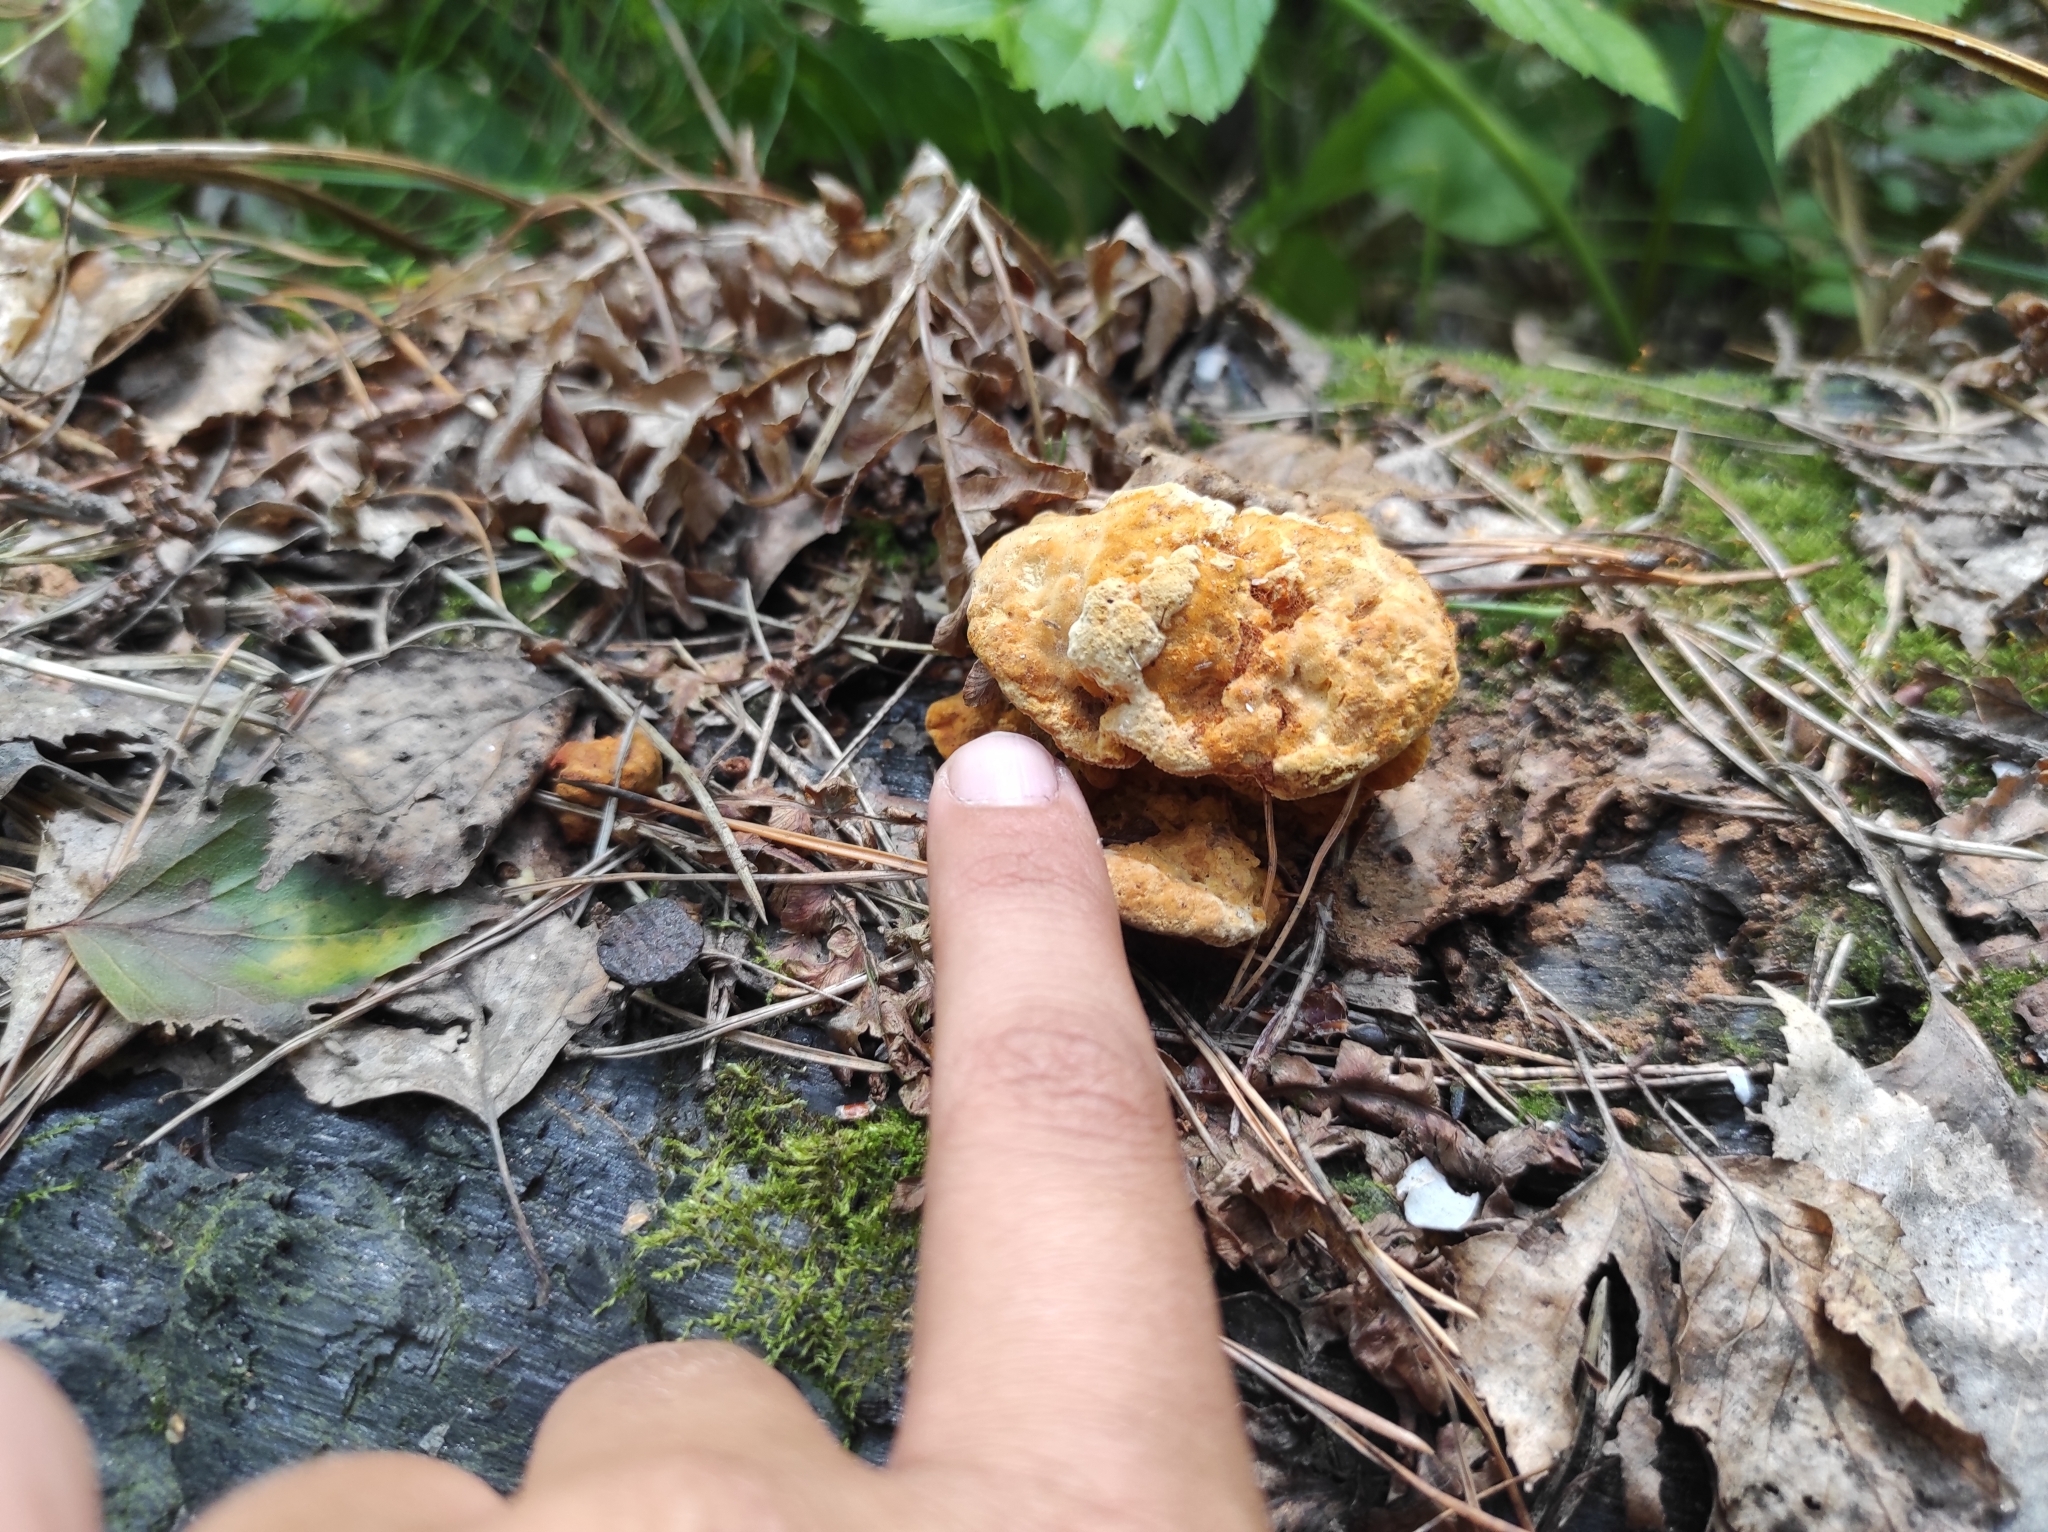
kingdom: Fungi
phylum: Basidiomycota
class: Agaricomycetes
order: Polyporales
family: Laetiporaceae
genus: Phaeolus
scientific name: Phaeolus schweinitzii
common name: Dyer's mazegill
